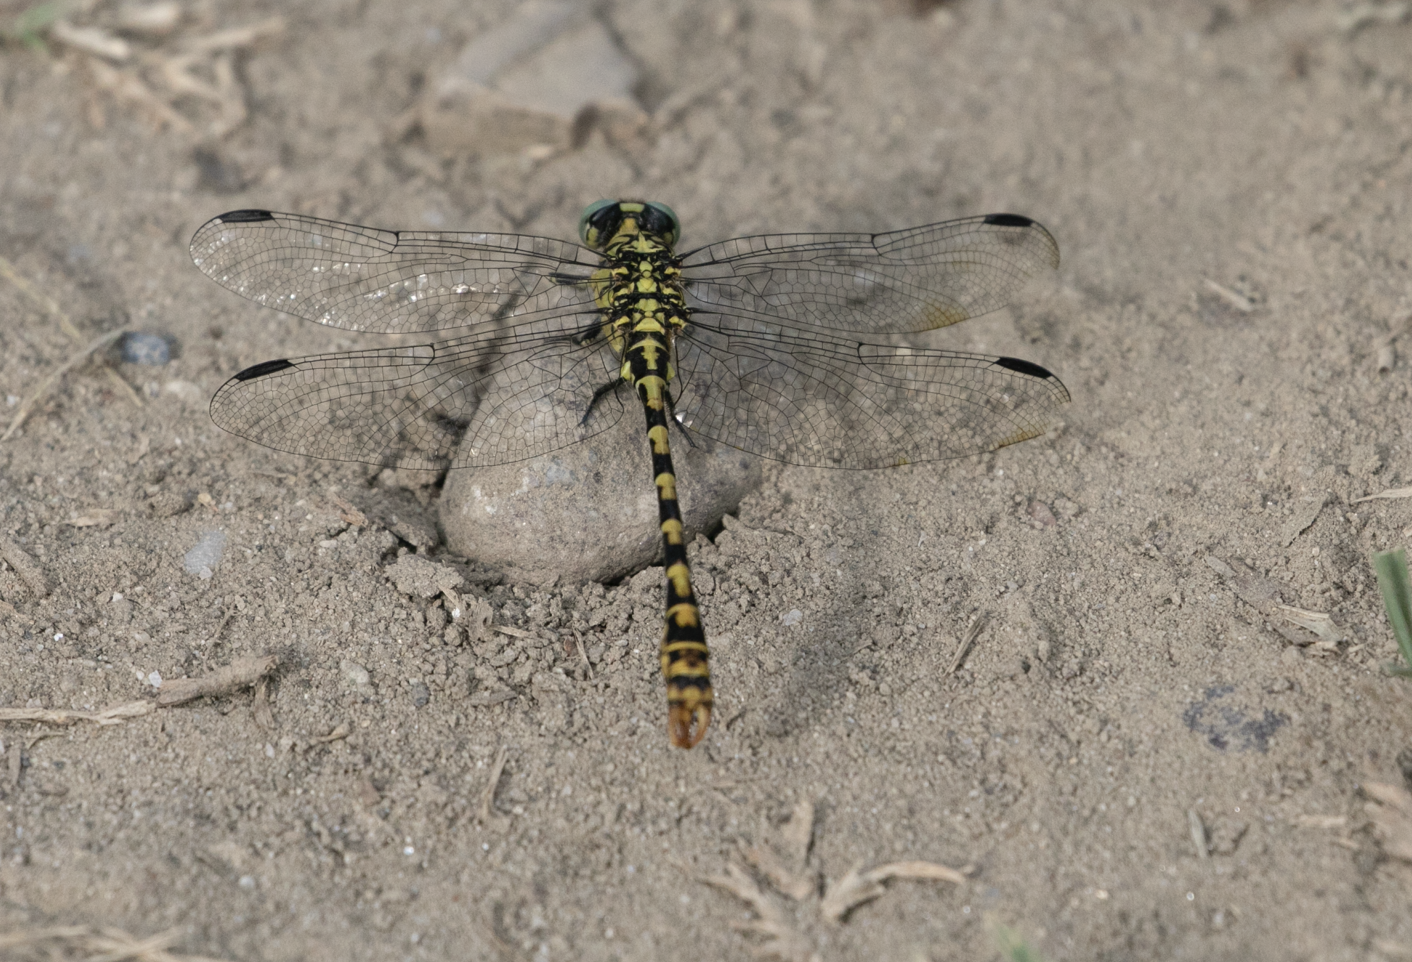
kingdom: Animalia
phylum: Arthropoda
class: Insecta
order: Odonata
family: Gomphidae
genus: Onychogomphus
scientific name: Onychogomphus forcipatus
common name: Small pincertail
